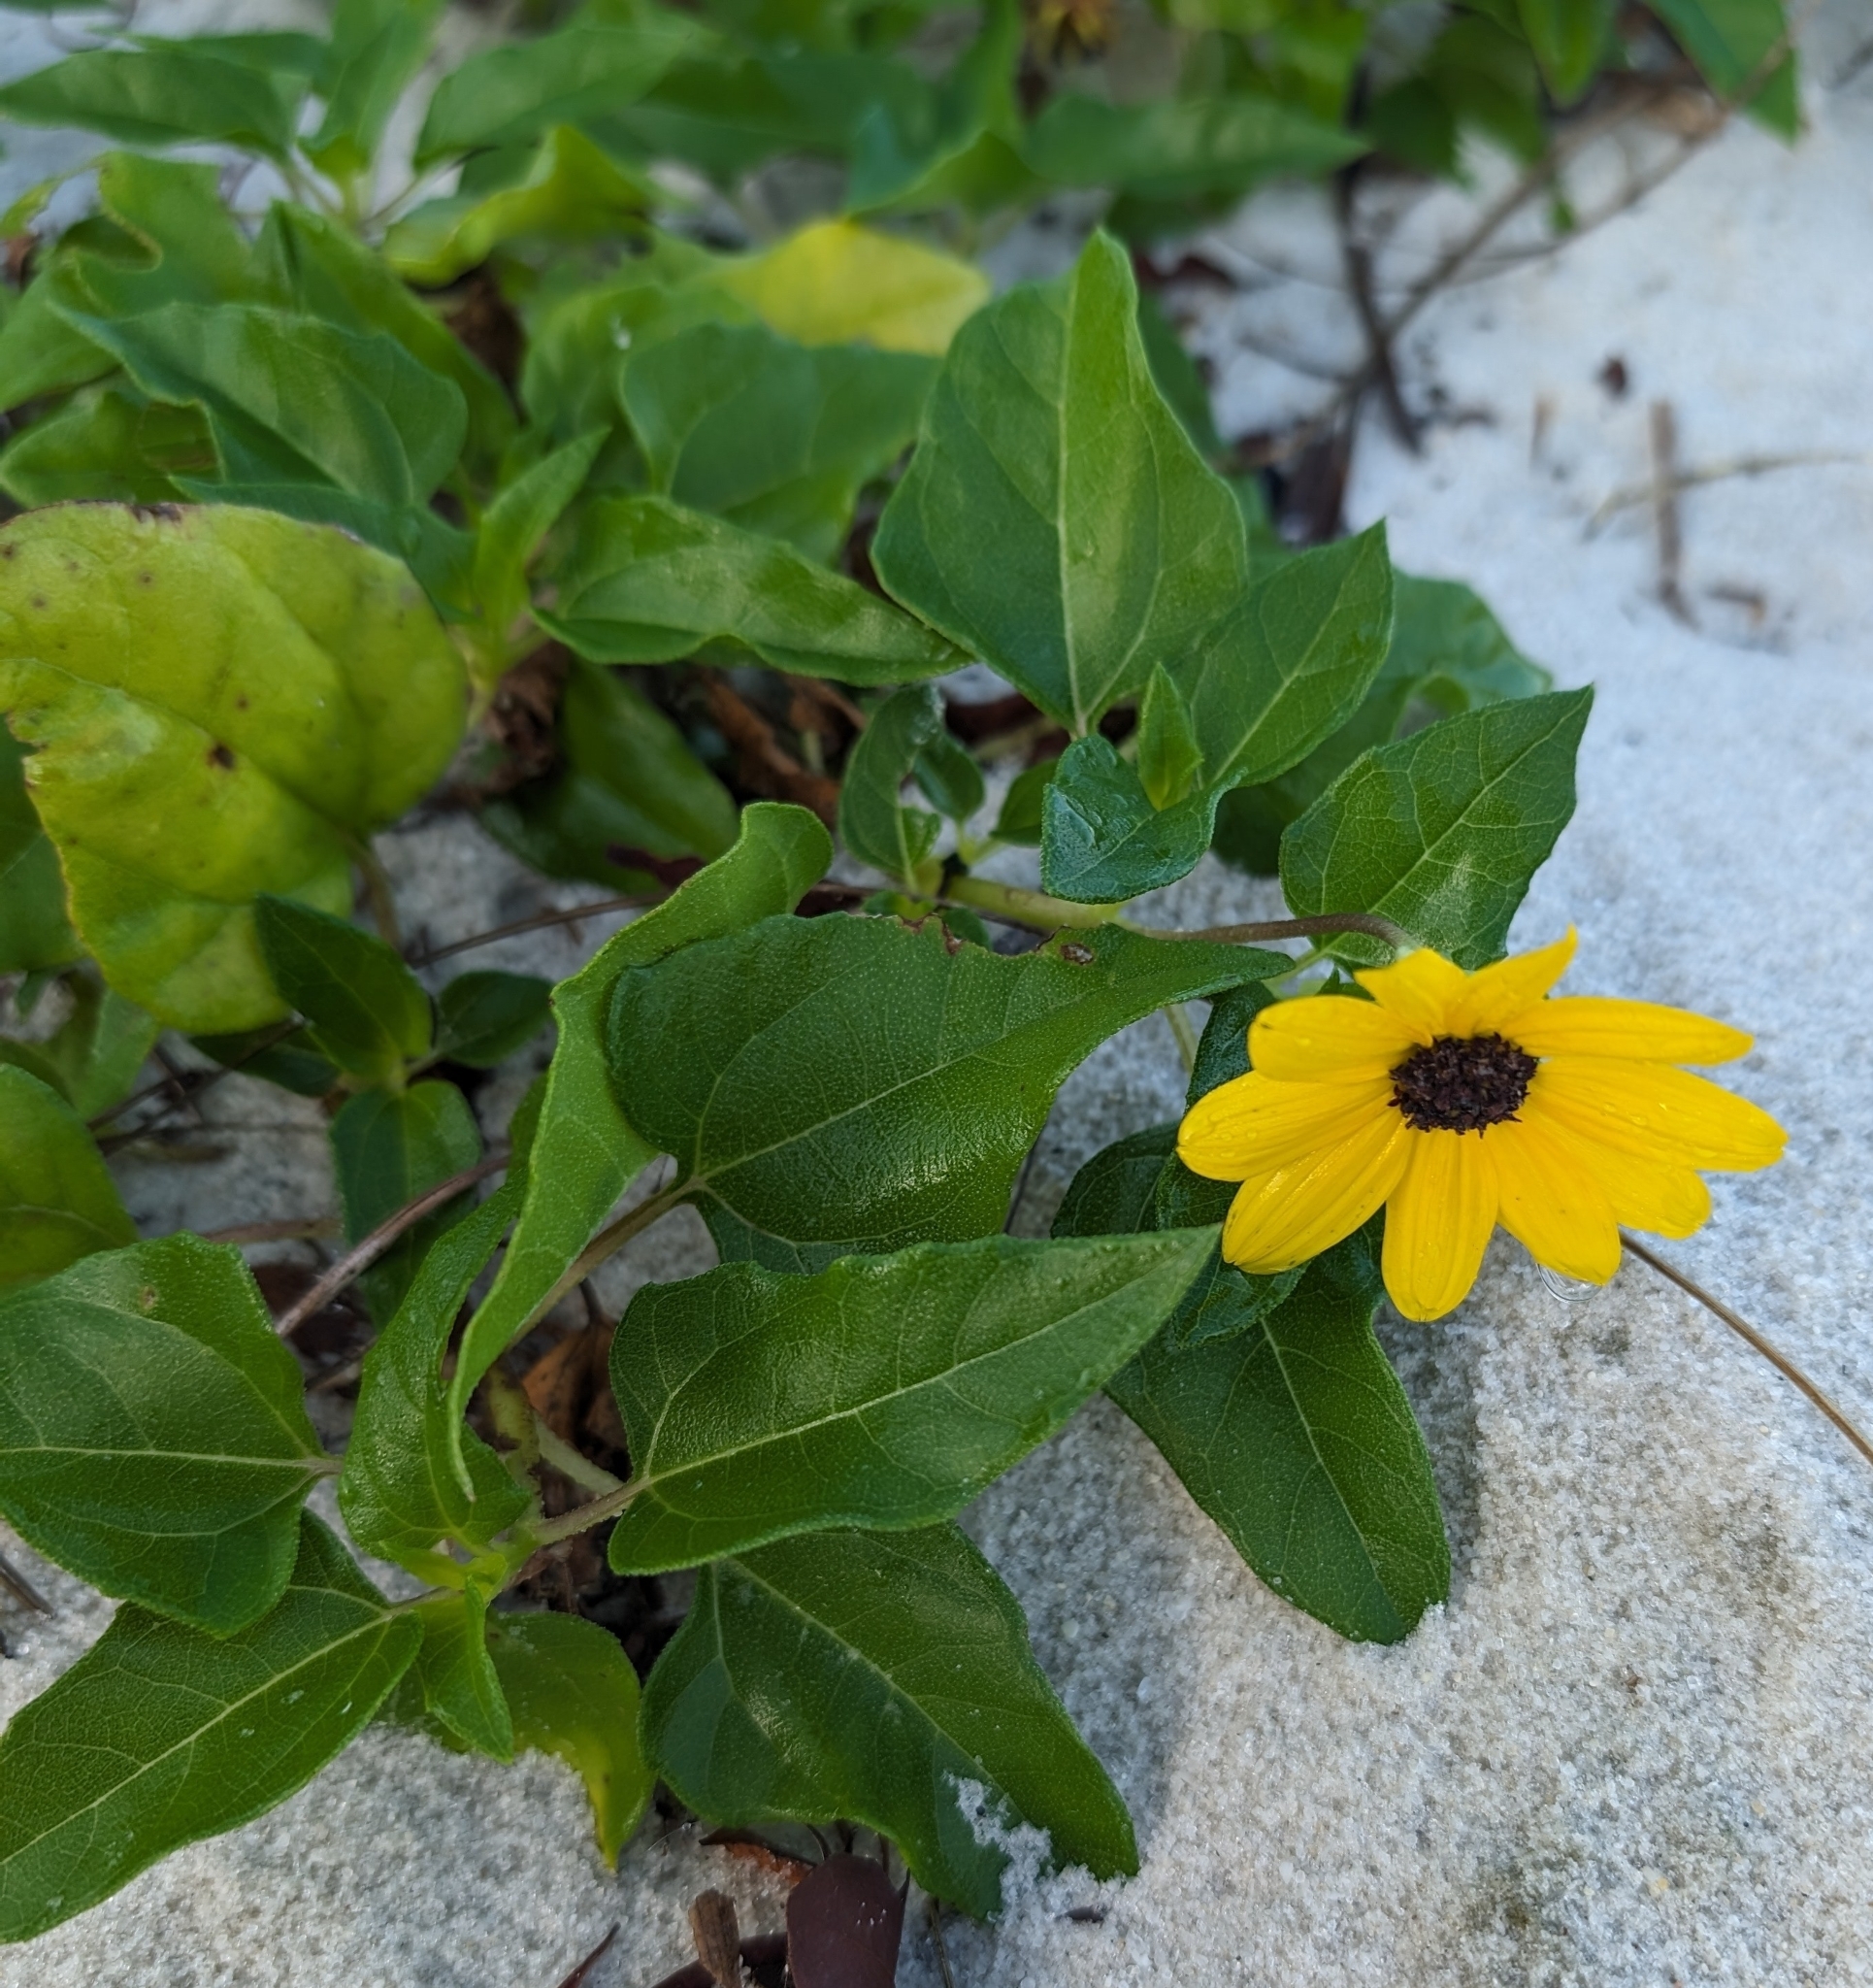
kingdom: Plantae
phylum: Tracheophyta
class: Magnoliopsida
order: Asterales
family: Asteraceae
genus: Helianthus
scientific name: Helianthus debilis
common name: Weak sunflower
